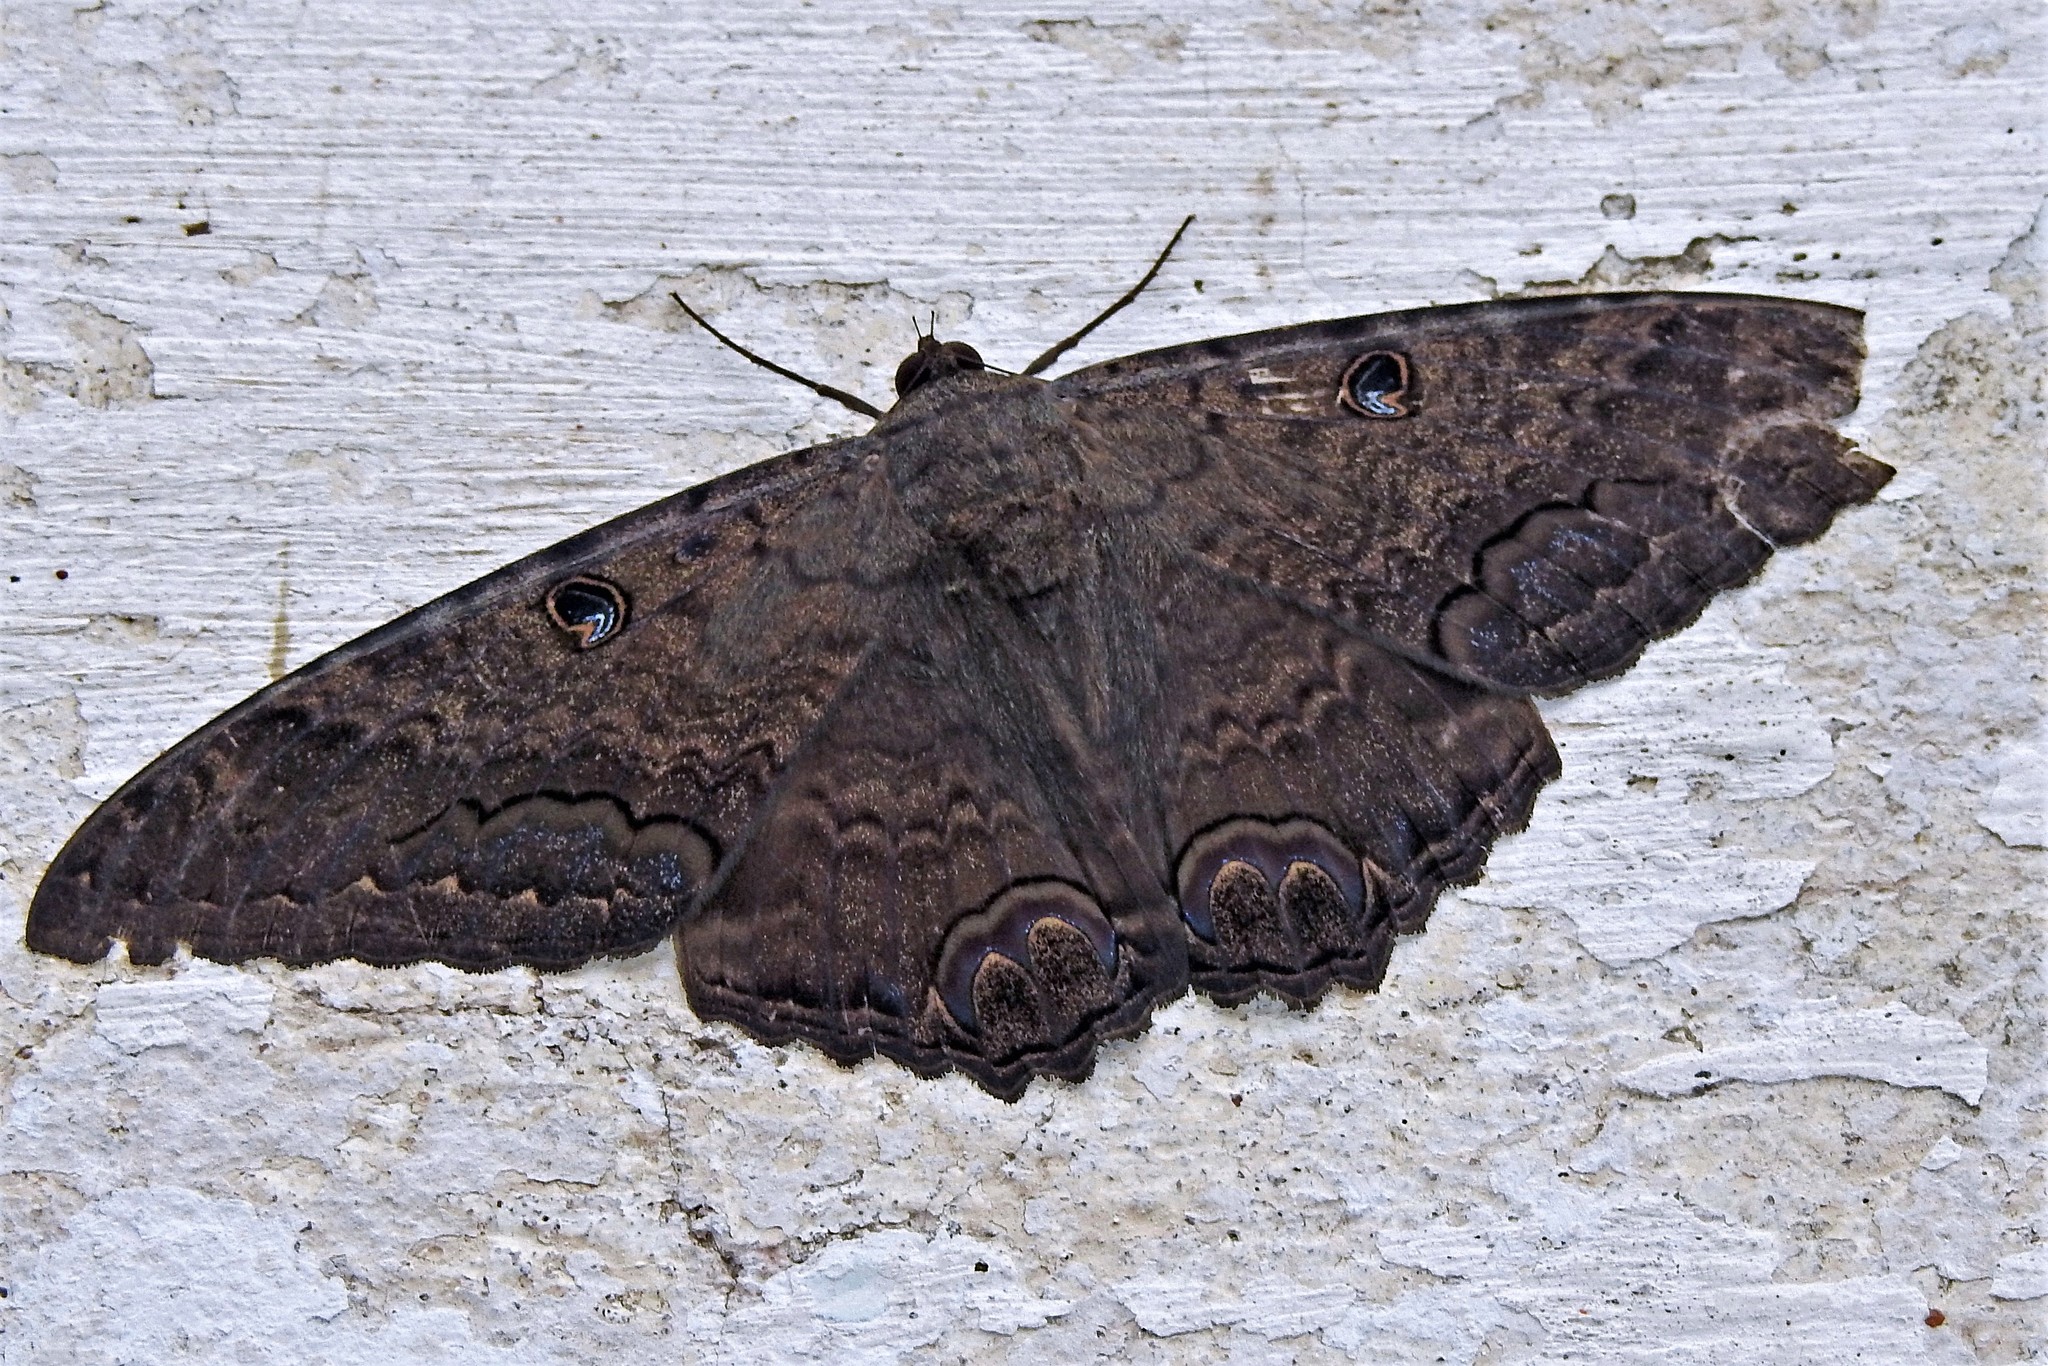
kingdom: Animalia
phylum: Arthropoda
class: Insecta
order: Lepidoptera
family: Erebidae
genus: Ascalapha
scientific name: Ascalapha odorata
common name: Black witch
